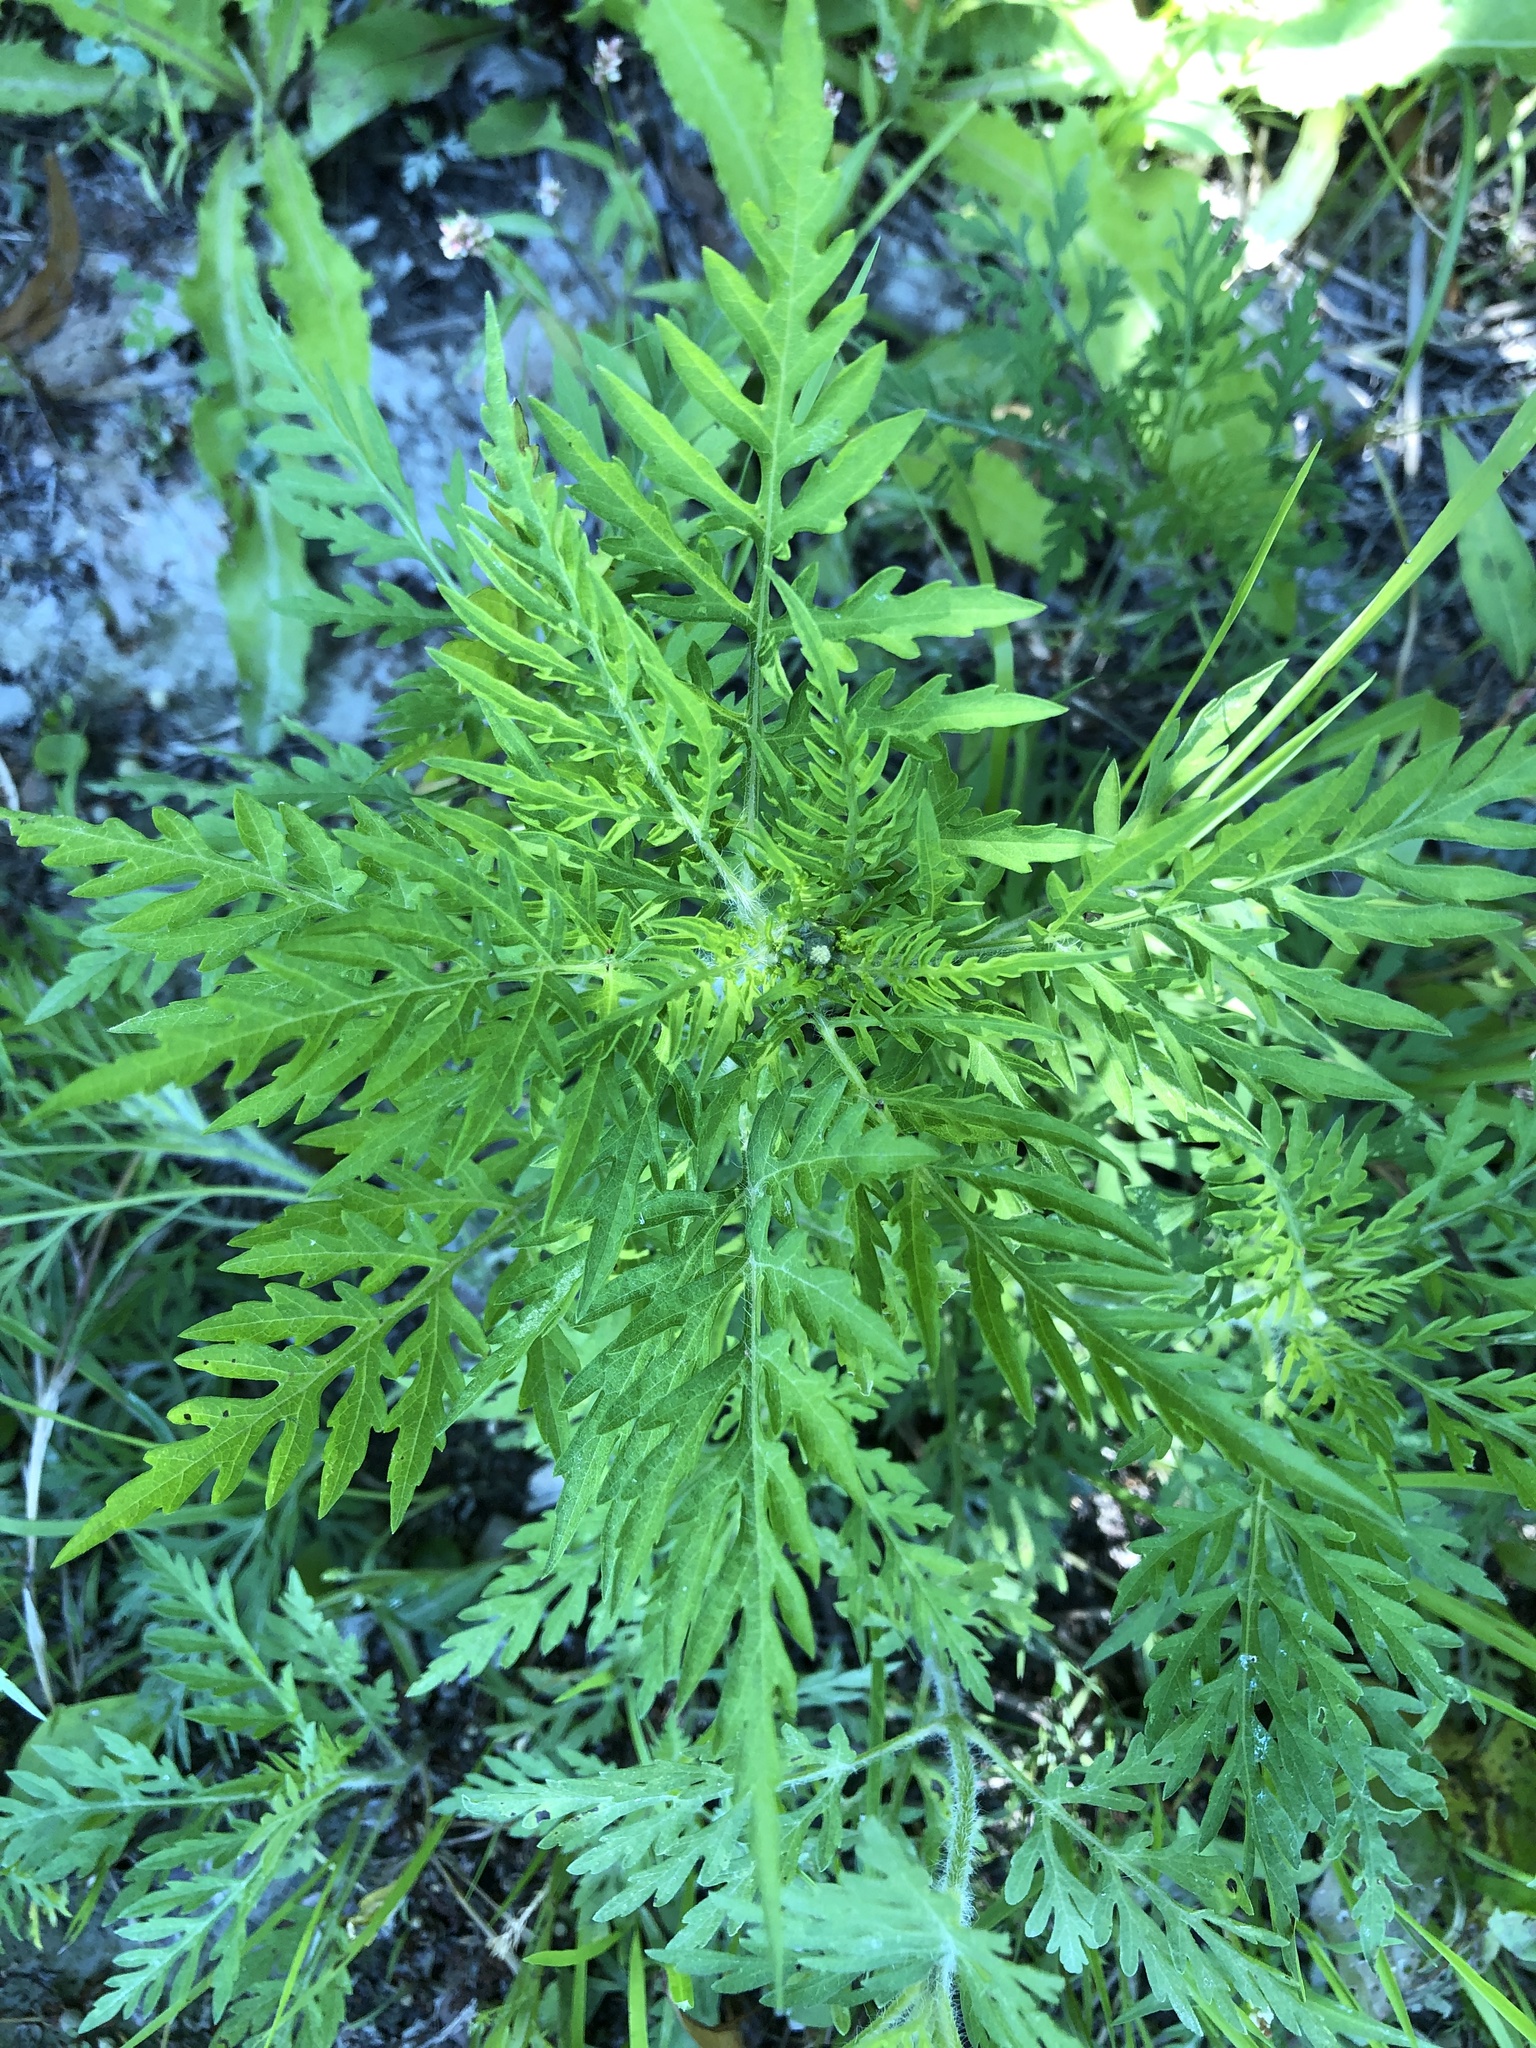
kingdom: Plantae
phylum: Tracheophyta
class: Magnoliopsida
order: Asterales
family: Asteraceae
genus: Ambrosia
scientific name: Ambrosia artemisiifolia
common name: Annual ragweed
